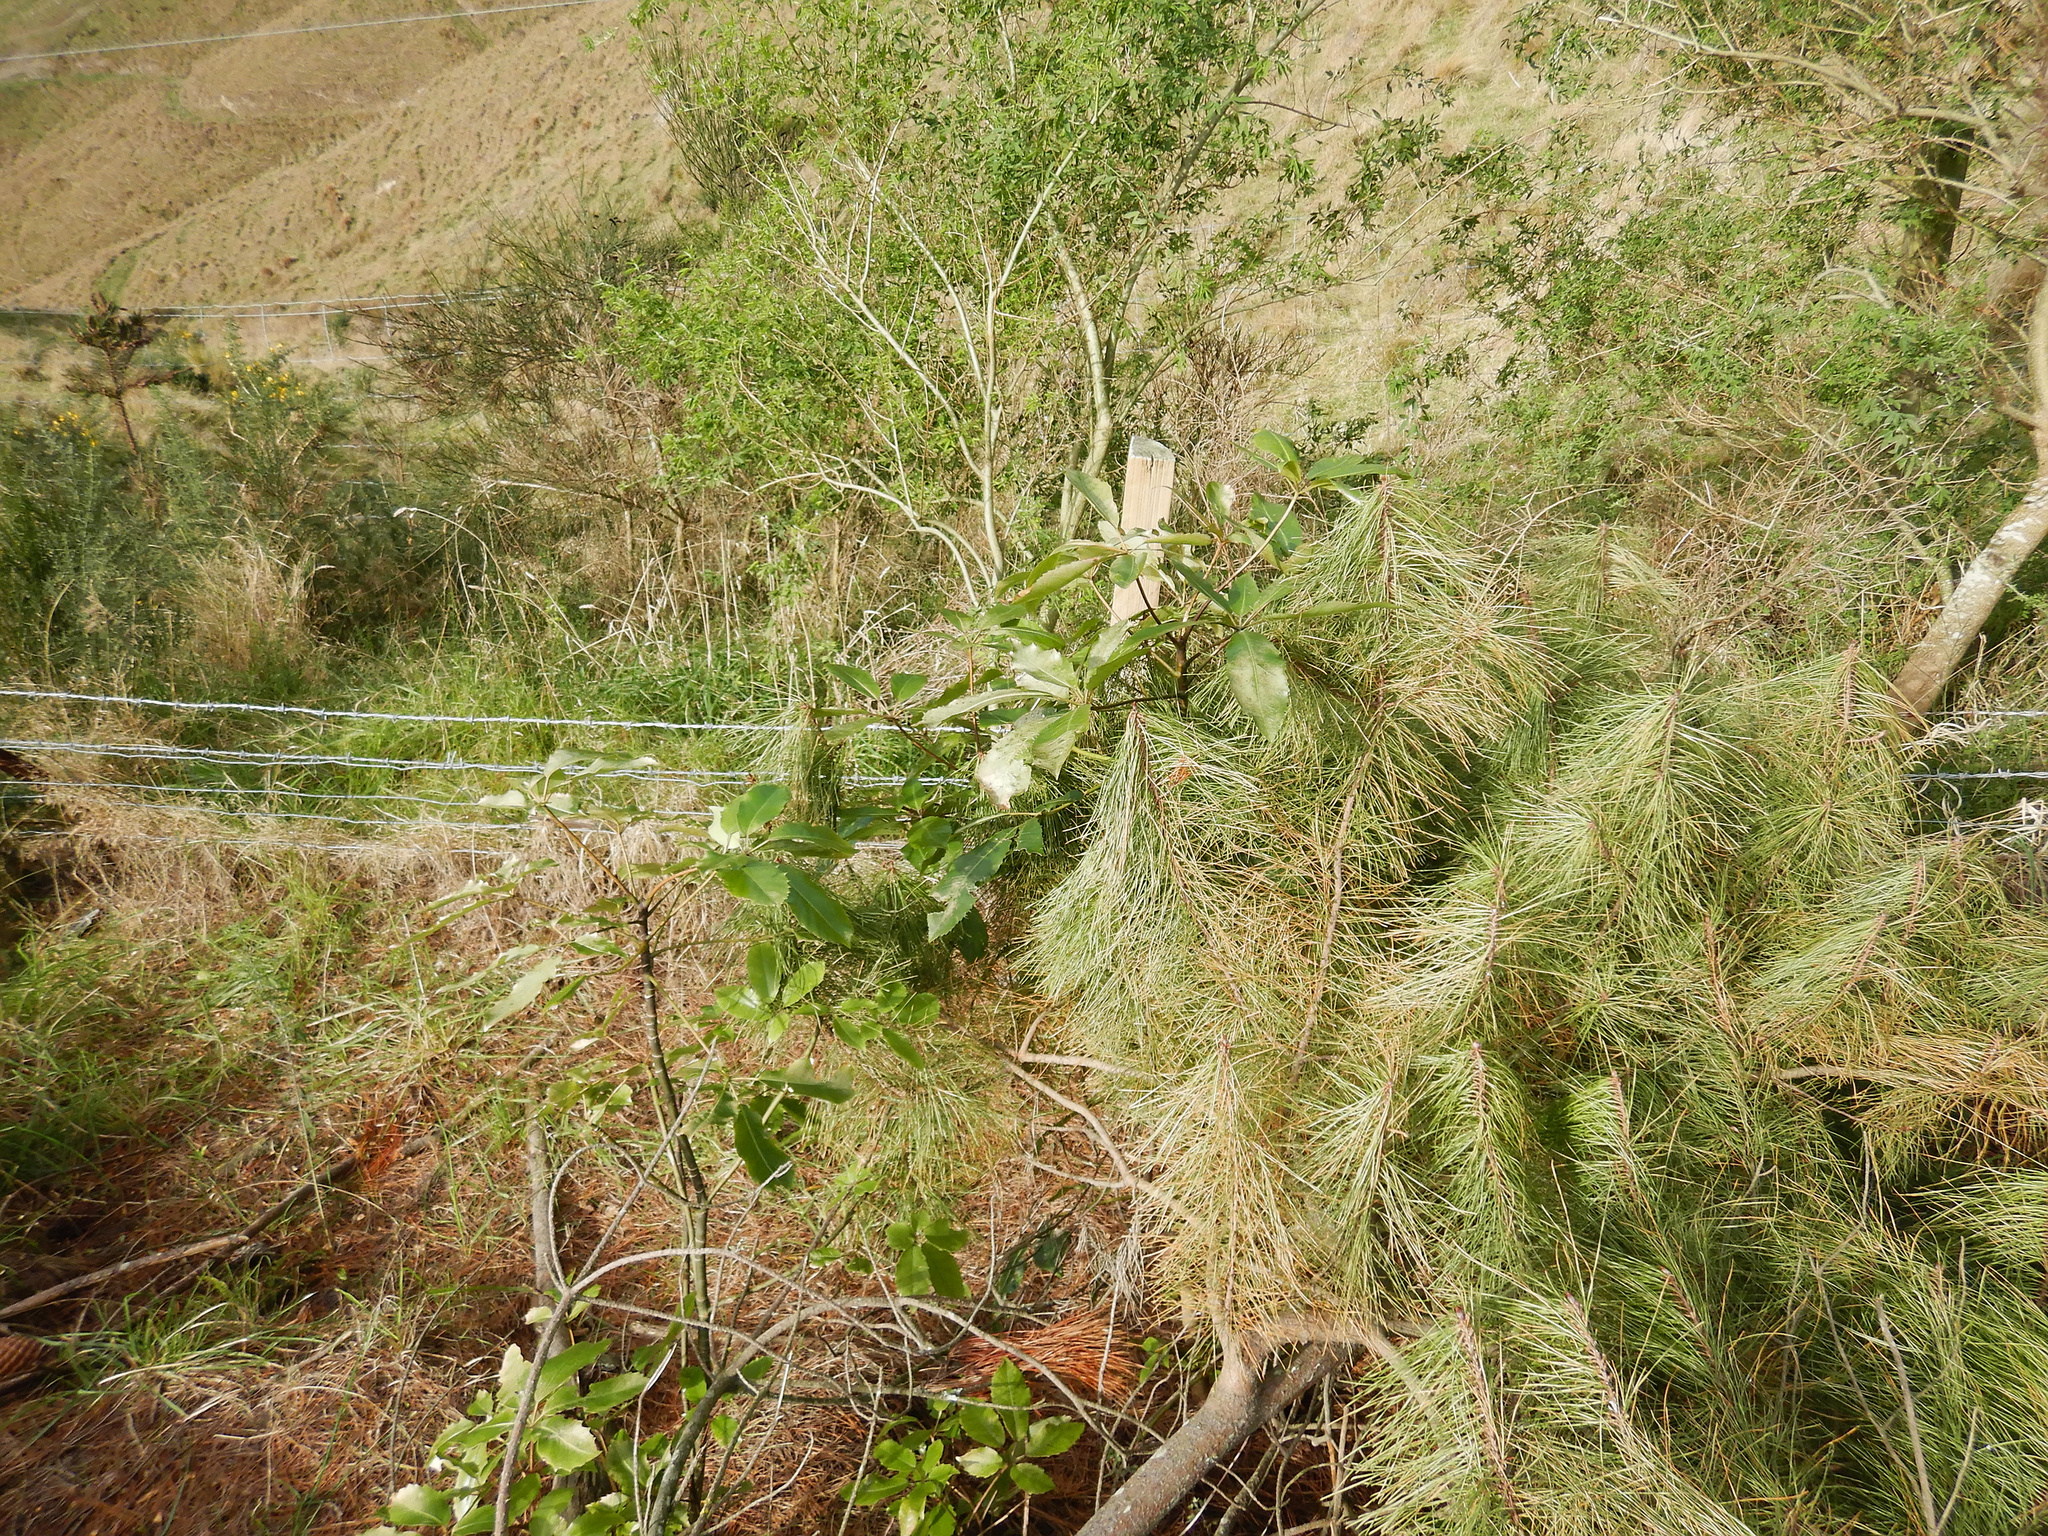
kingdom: Plantae
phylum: Tracheophyta
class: Magnoliopsida
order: Apiales
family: Araliaceae
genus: Neopanax
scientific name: Neopanax arboreus
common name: Five-fingers
